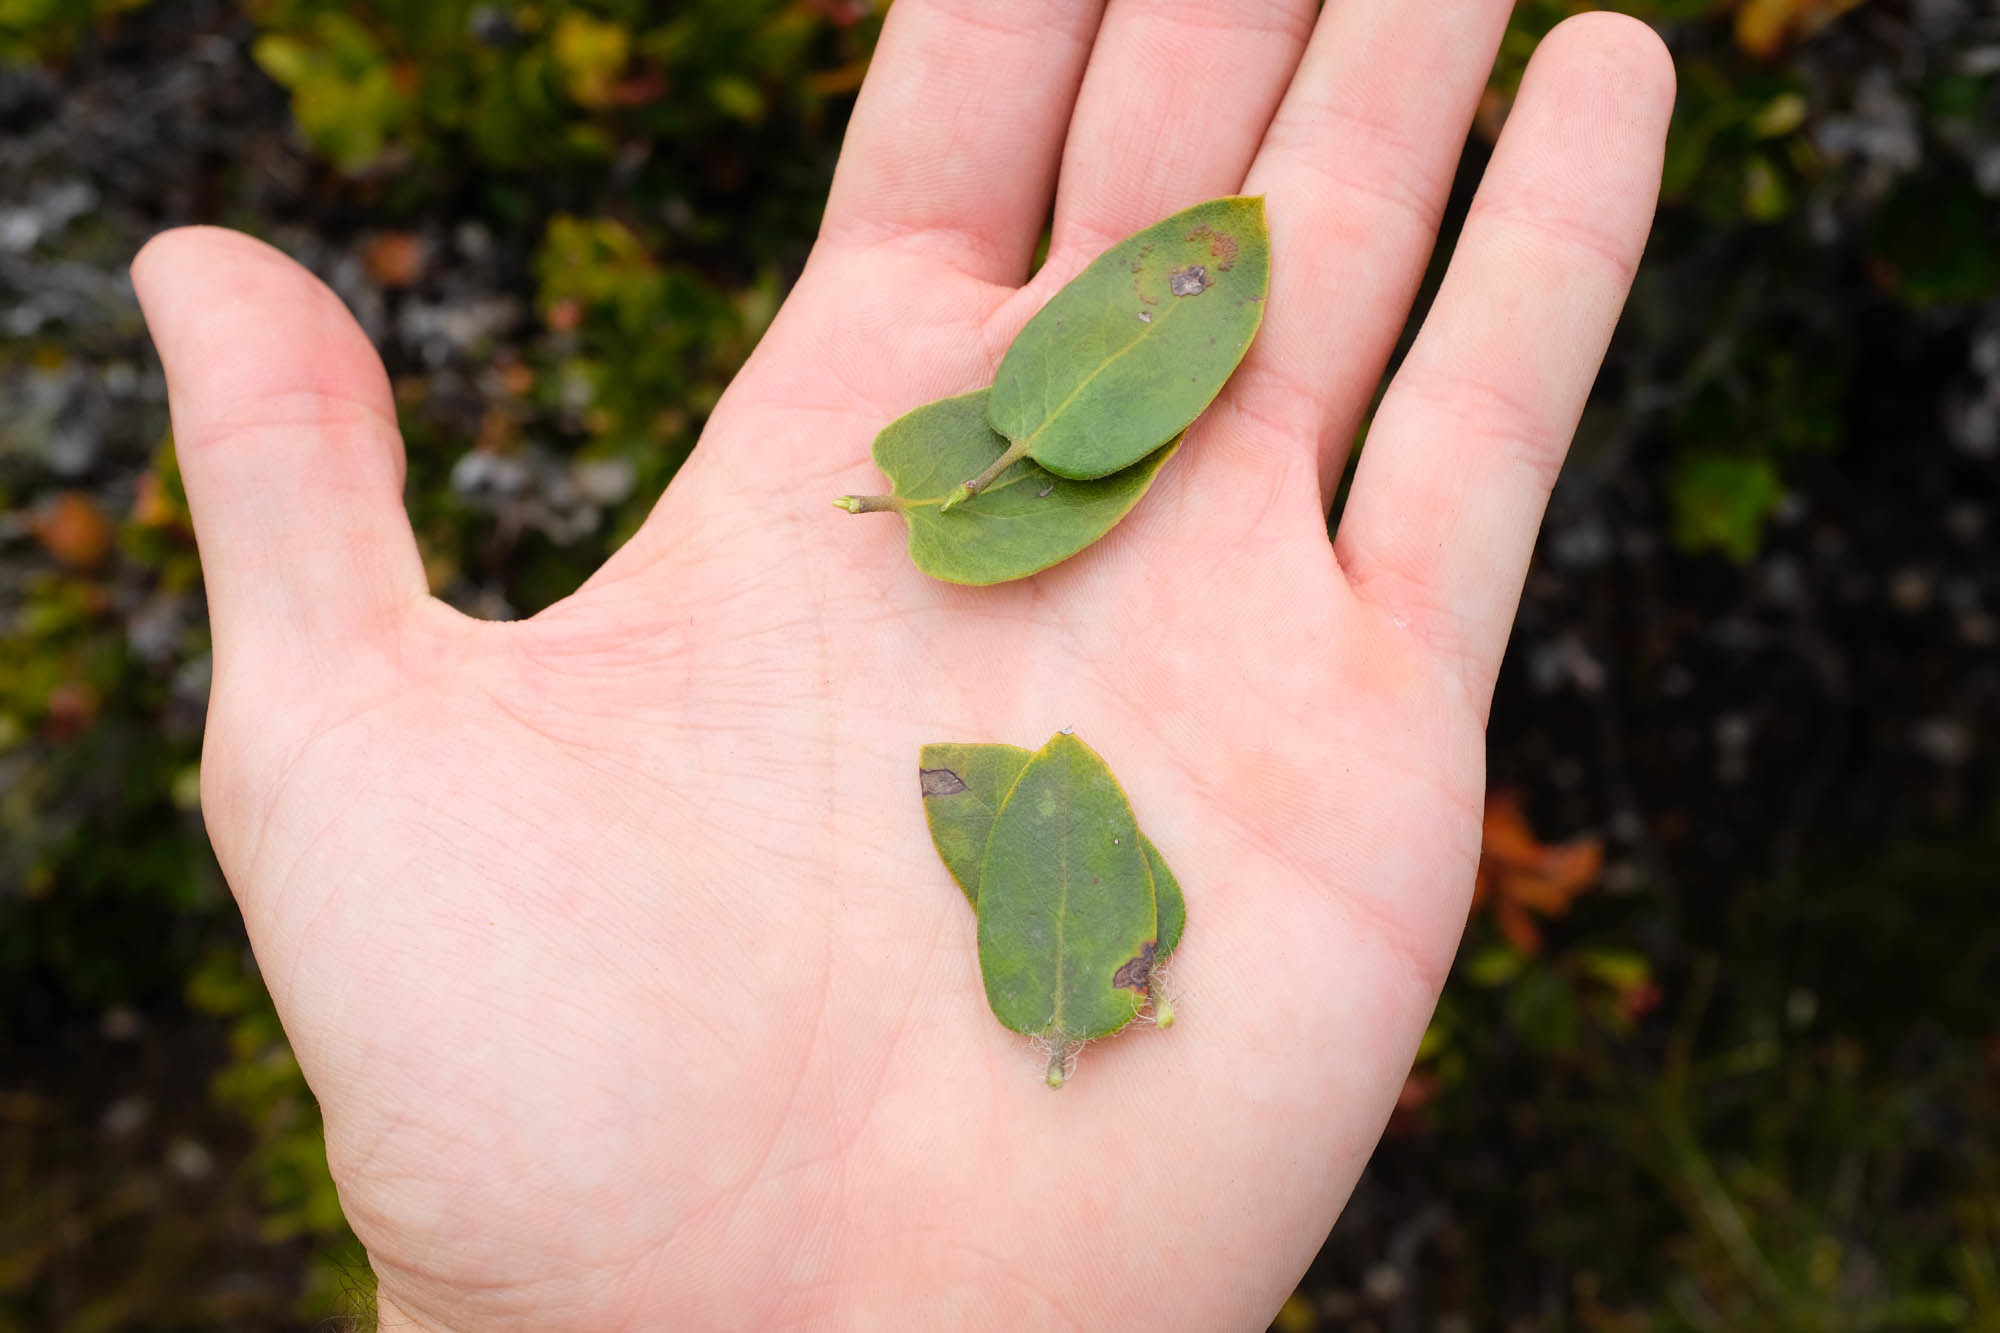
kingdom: Plantae
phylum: Tracheophyta
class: Magnoliopsida
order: Ericales
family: Ericaceae
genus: Arctostaphylos
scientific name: Arctostaphylos crustacea
